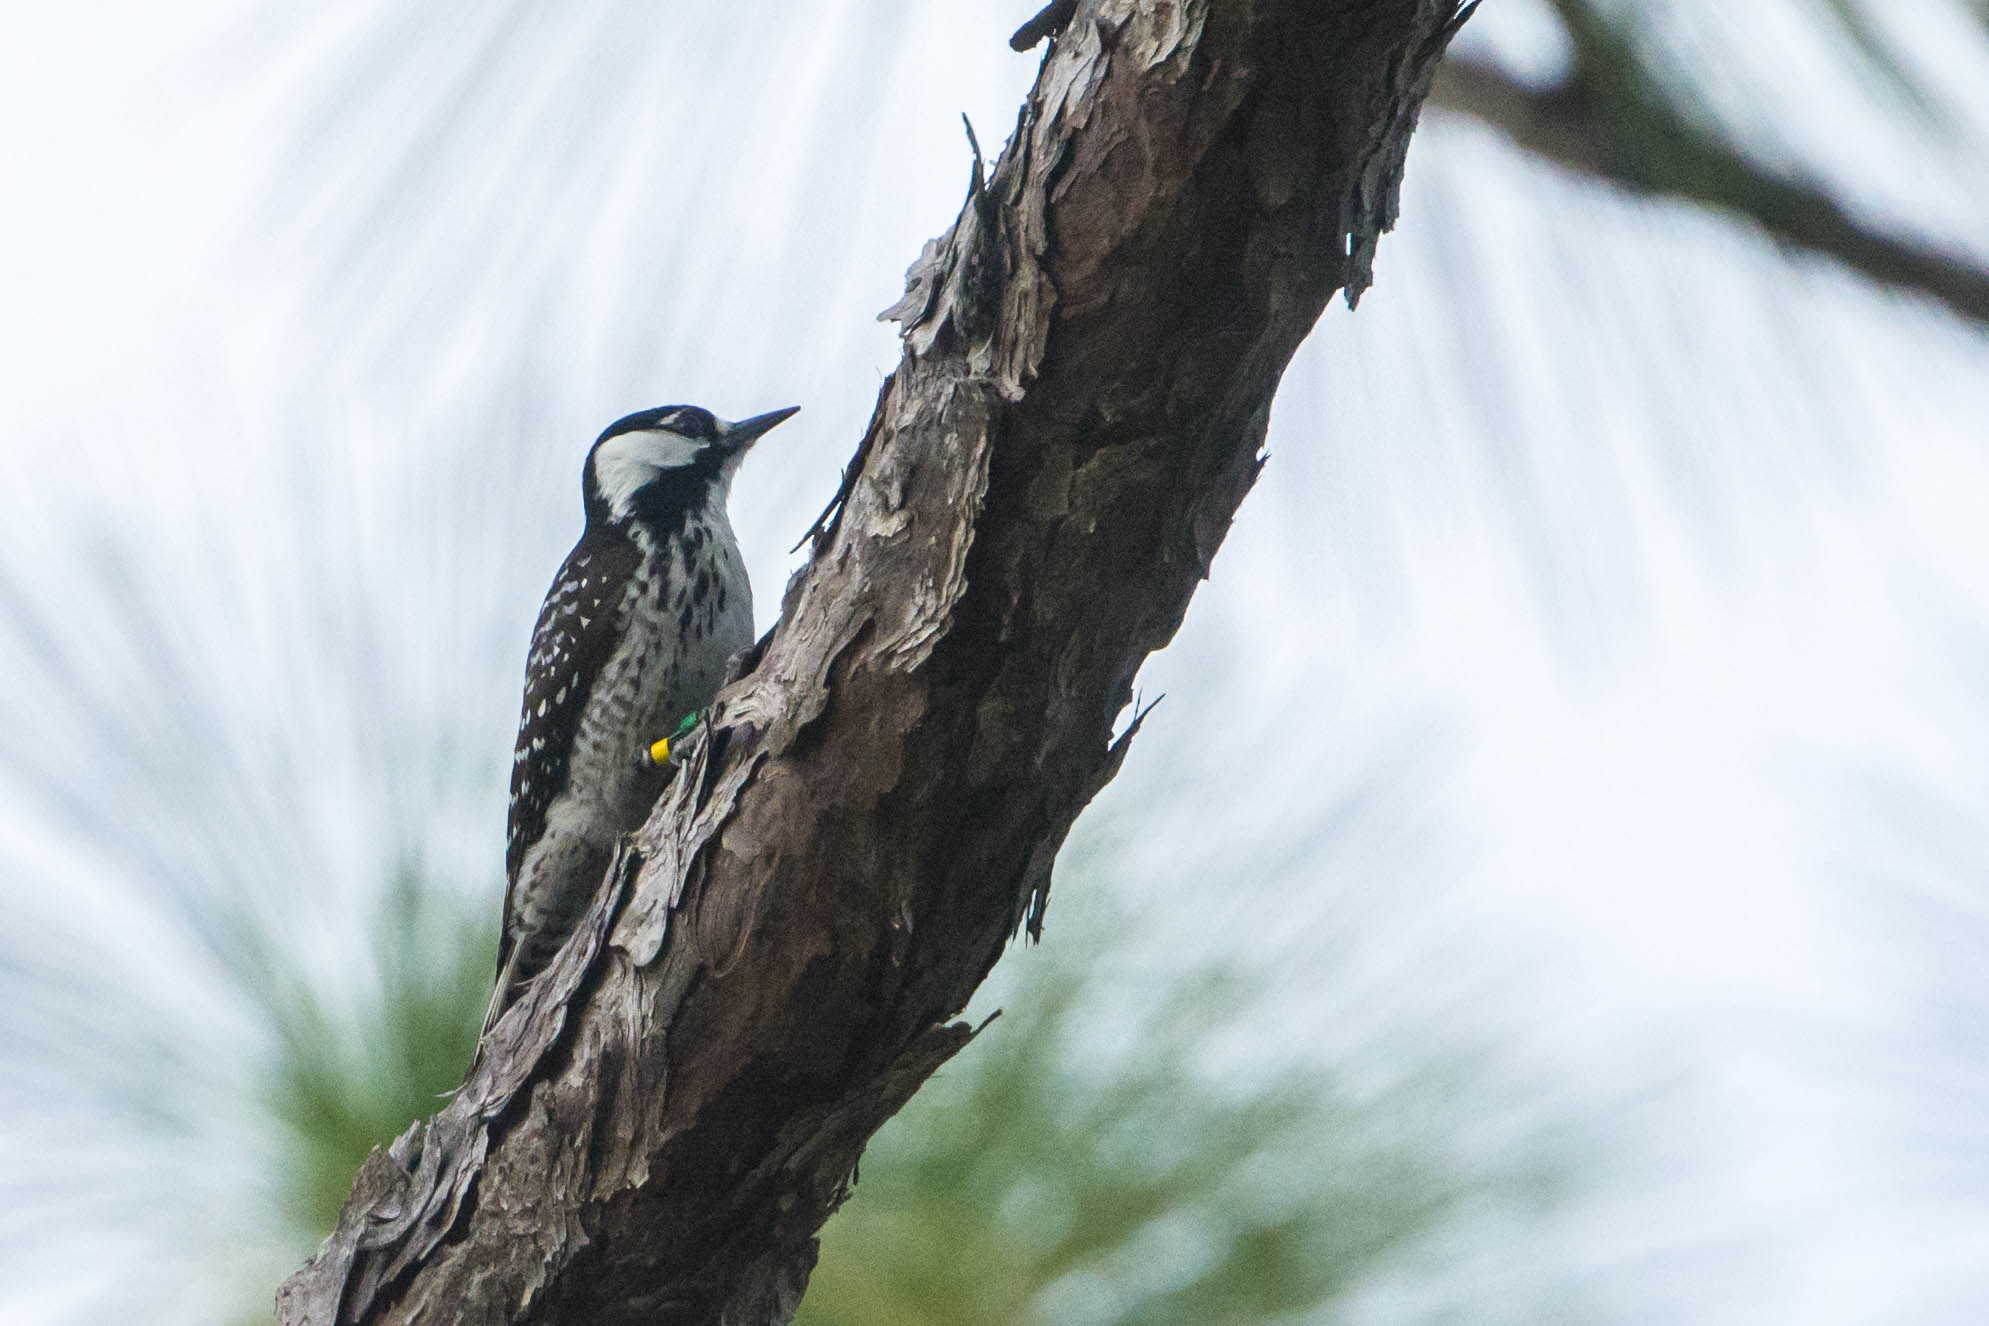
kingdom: Animalia
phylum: Chordata
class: Aves
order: Piciformes
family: Picidae
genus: Leuconotopicus
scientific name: Leuconotopicus borealis
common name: Red-cockaded woodpecker
